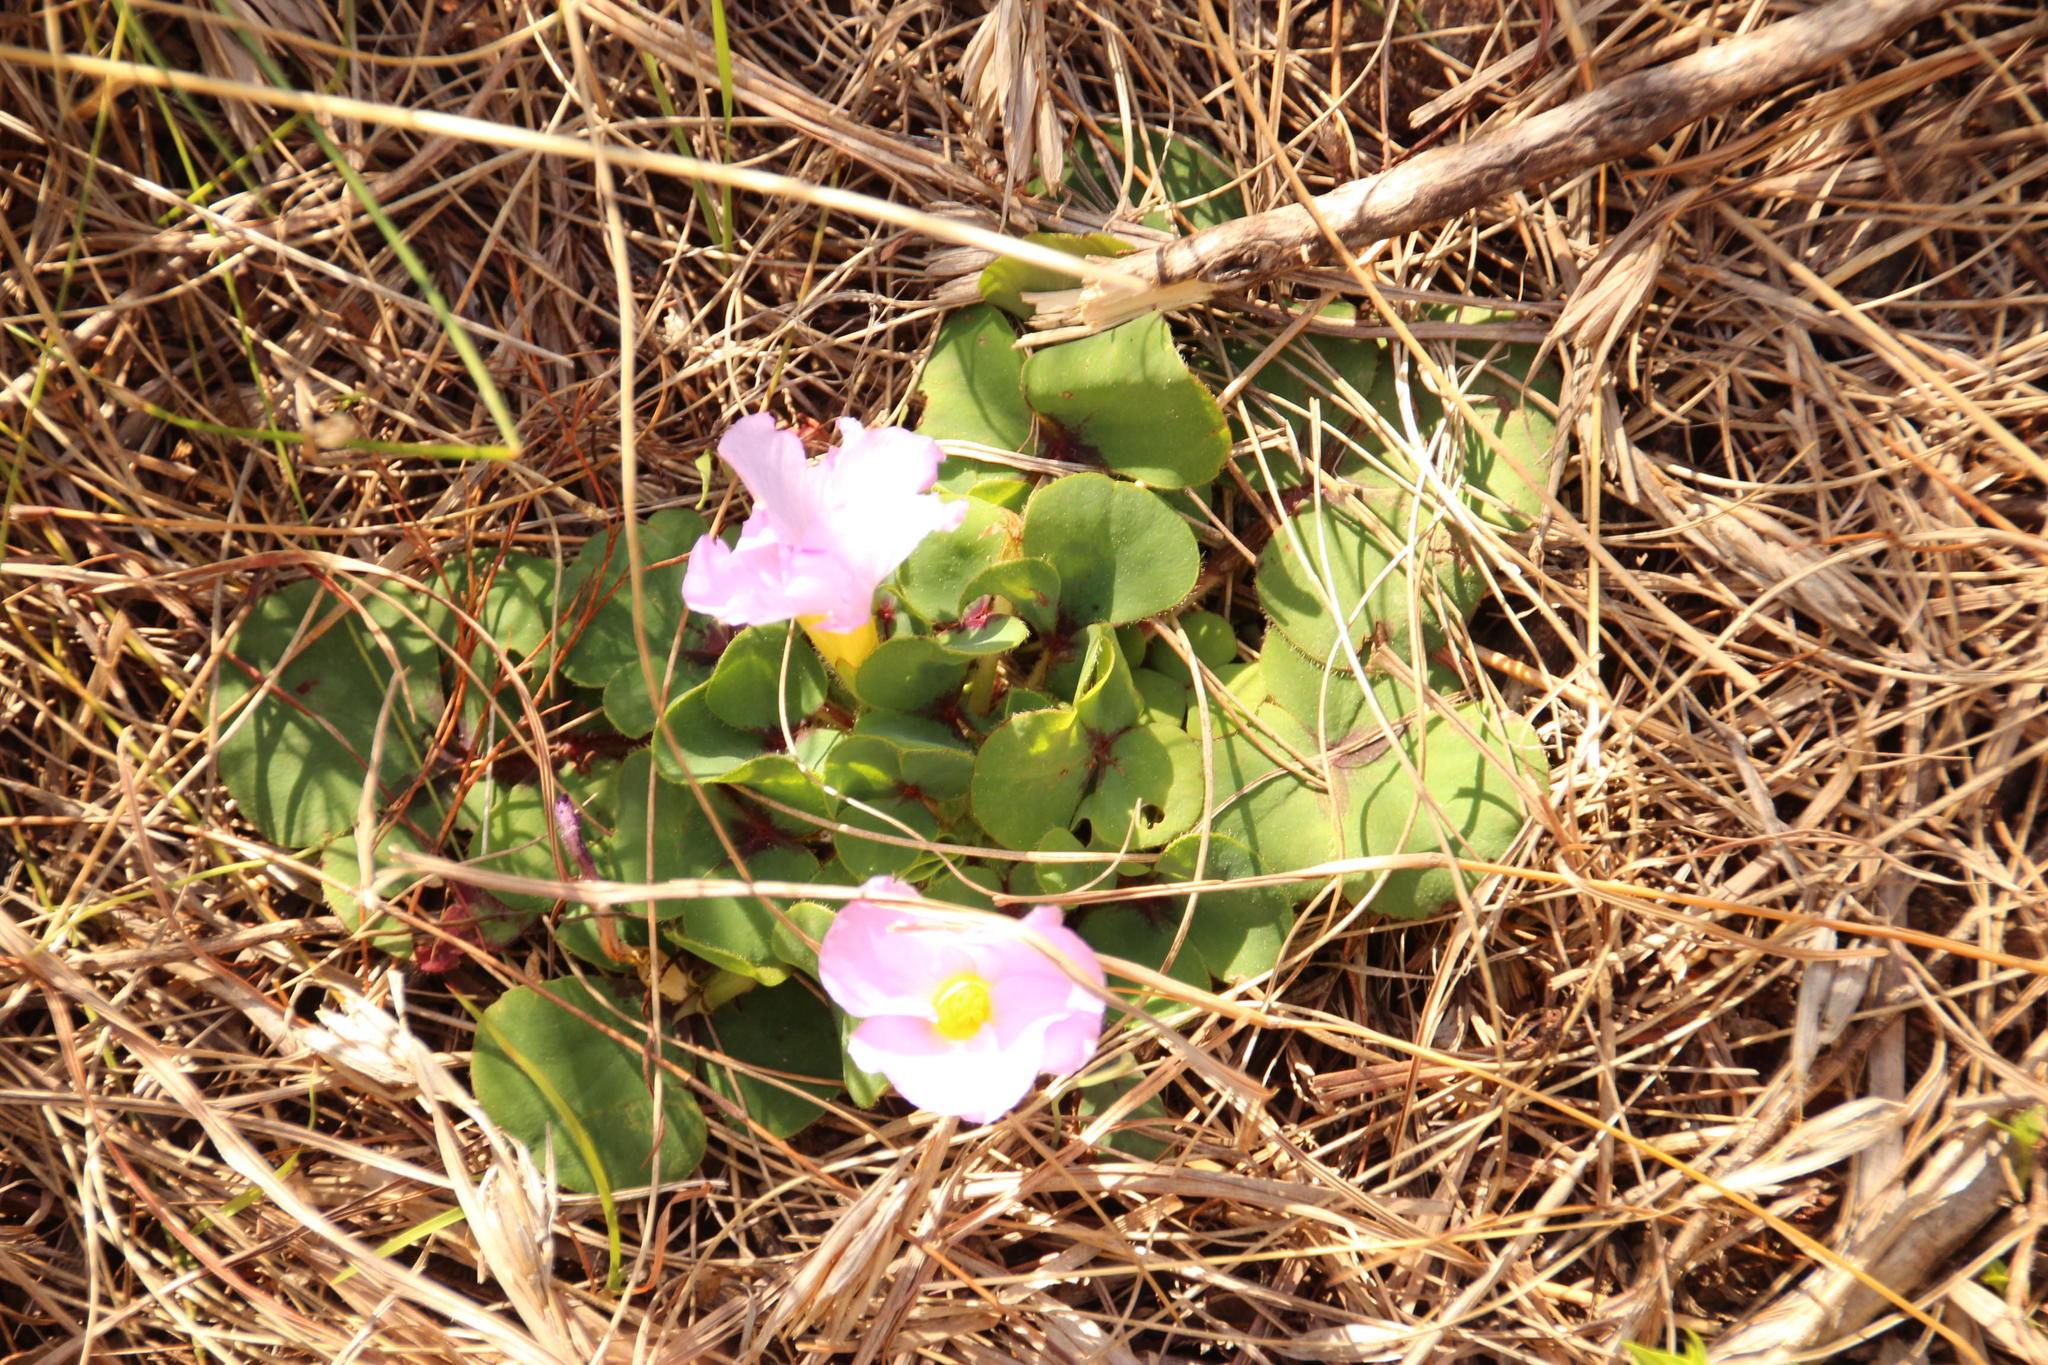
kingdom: Plantae
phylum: Tracheophyta
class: Magnoliopsida
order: Oxalidales
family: Oxalidaceae
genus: Oxalis
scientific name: Oxalis purpurea
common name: Purple woodsorrel
